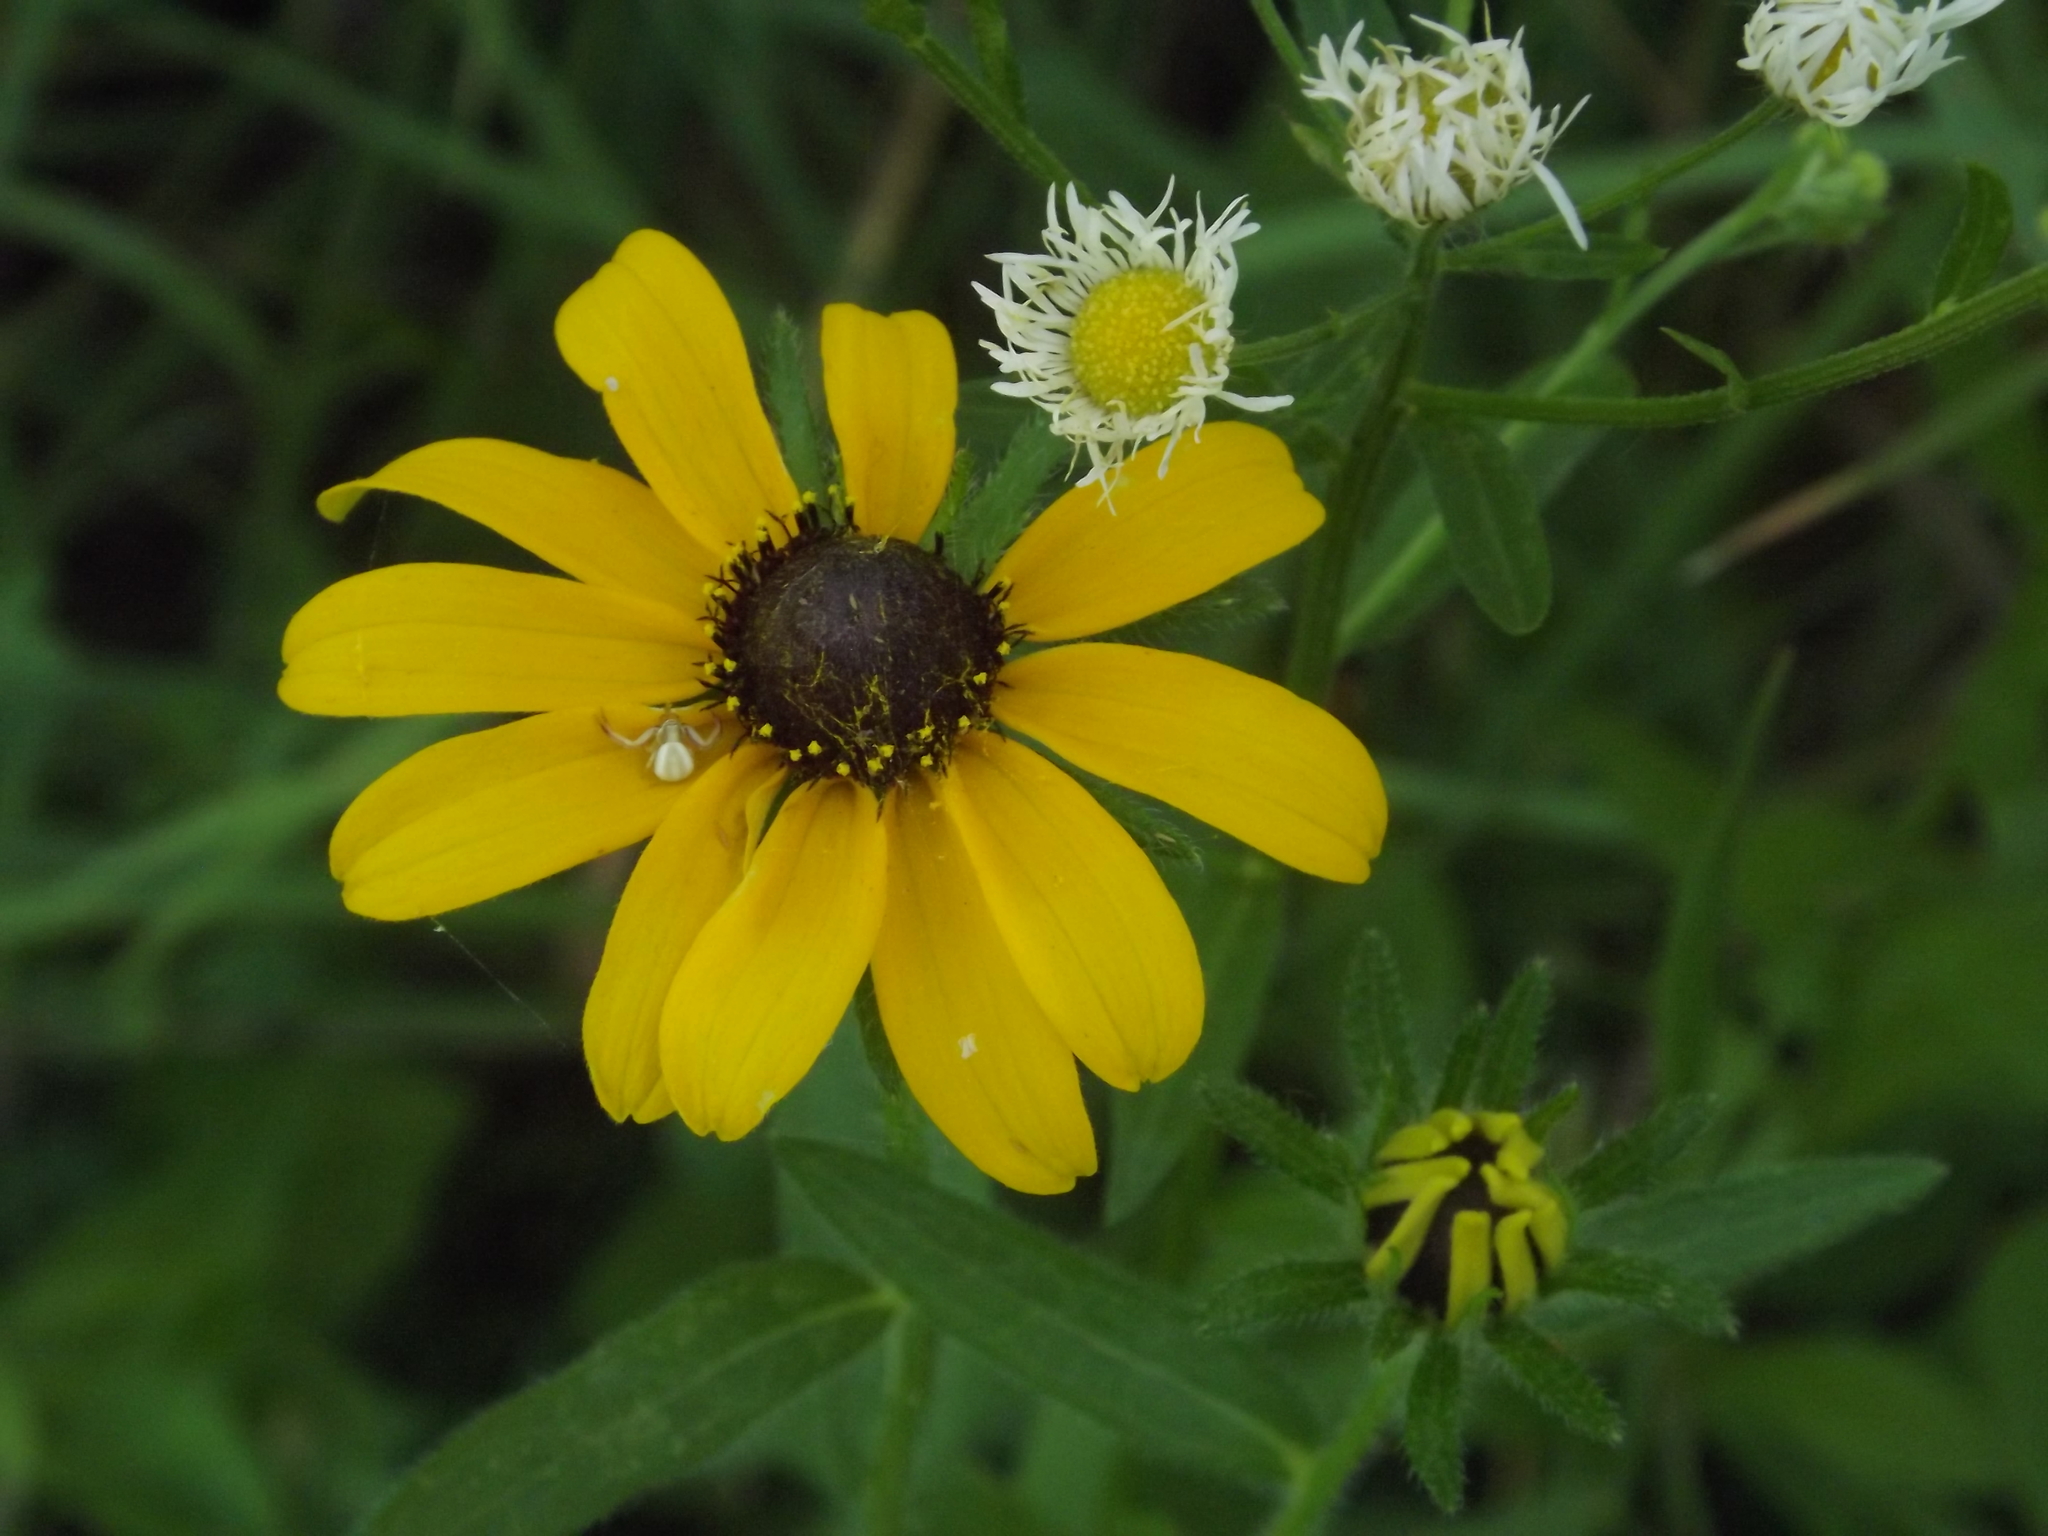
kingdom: Animalia
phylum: Arthropoda
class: Arachnida
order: Araneae
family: Thomisidae
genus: Misumenoides
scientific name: Misumenoides formosipes
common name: White-banded crab spider
